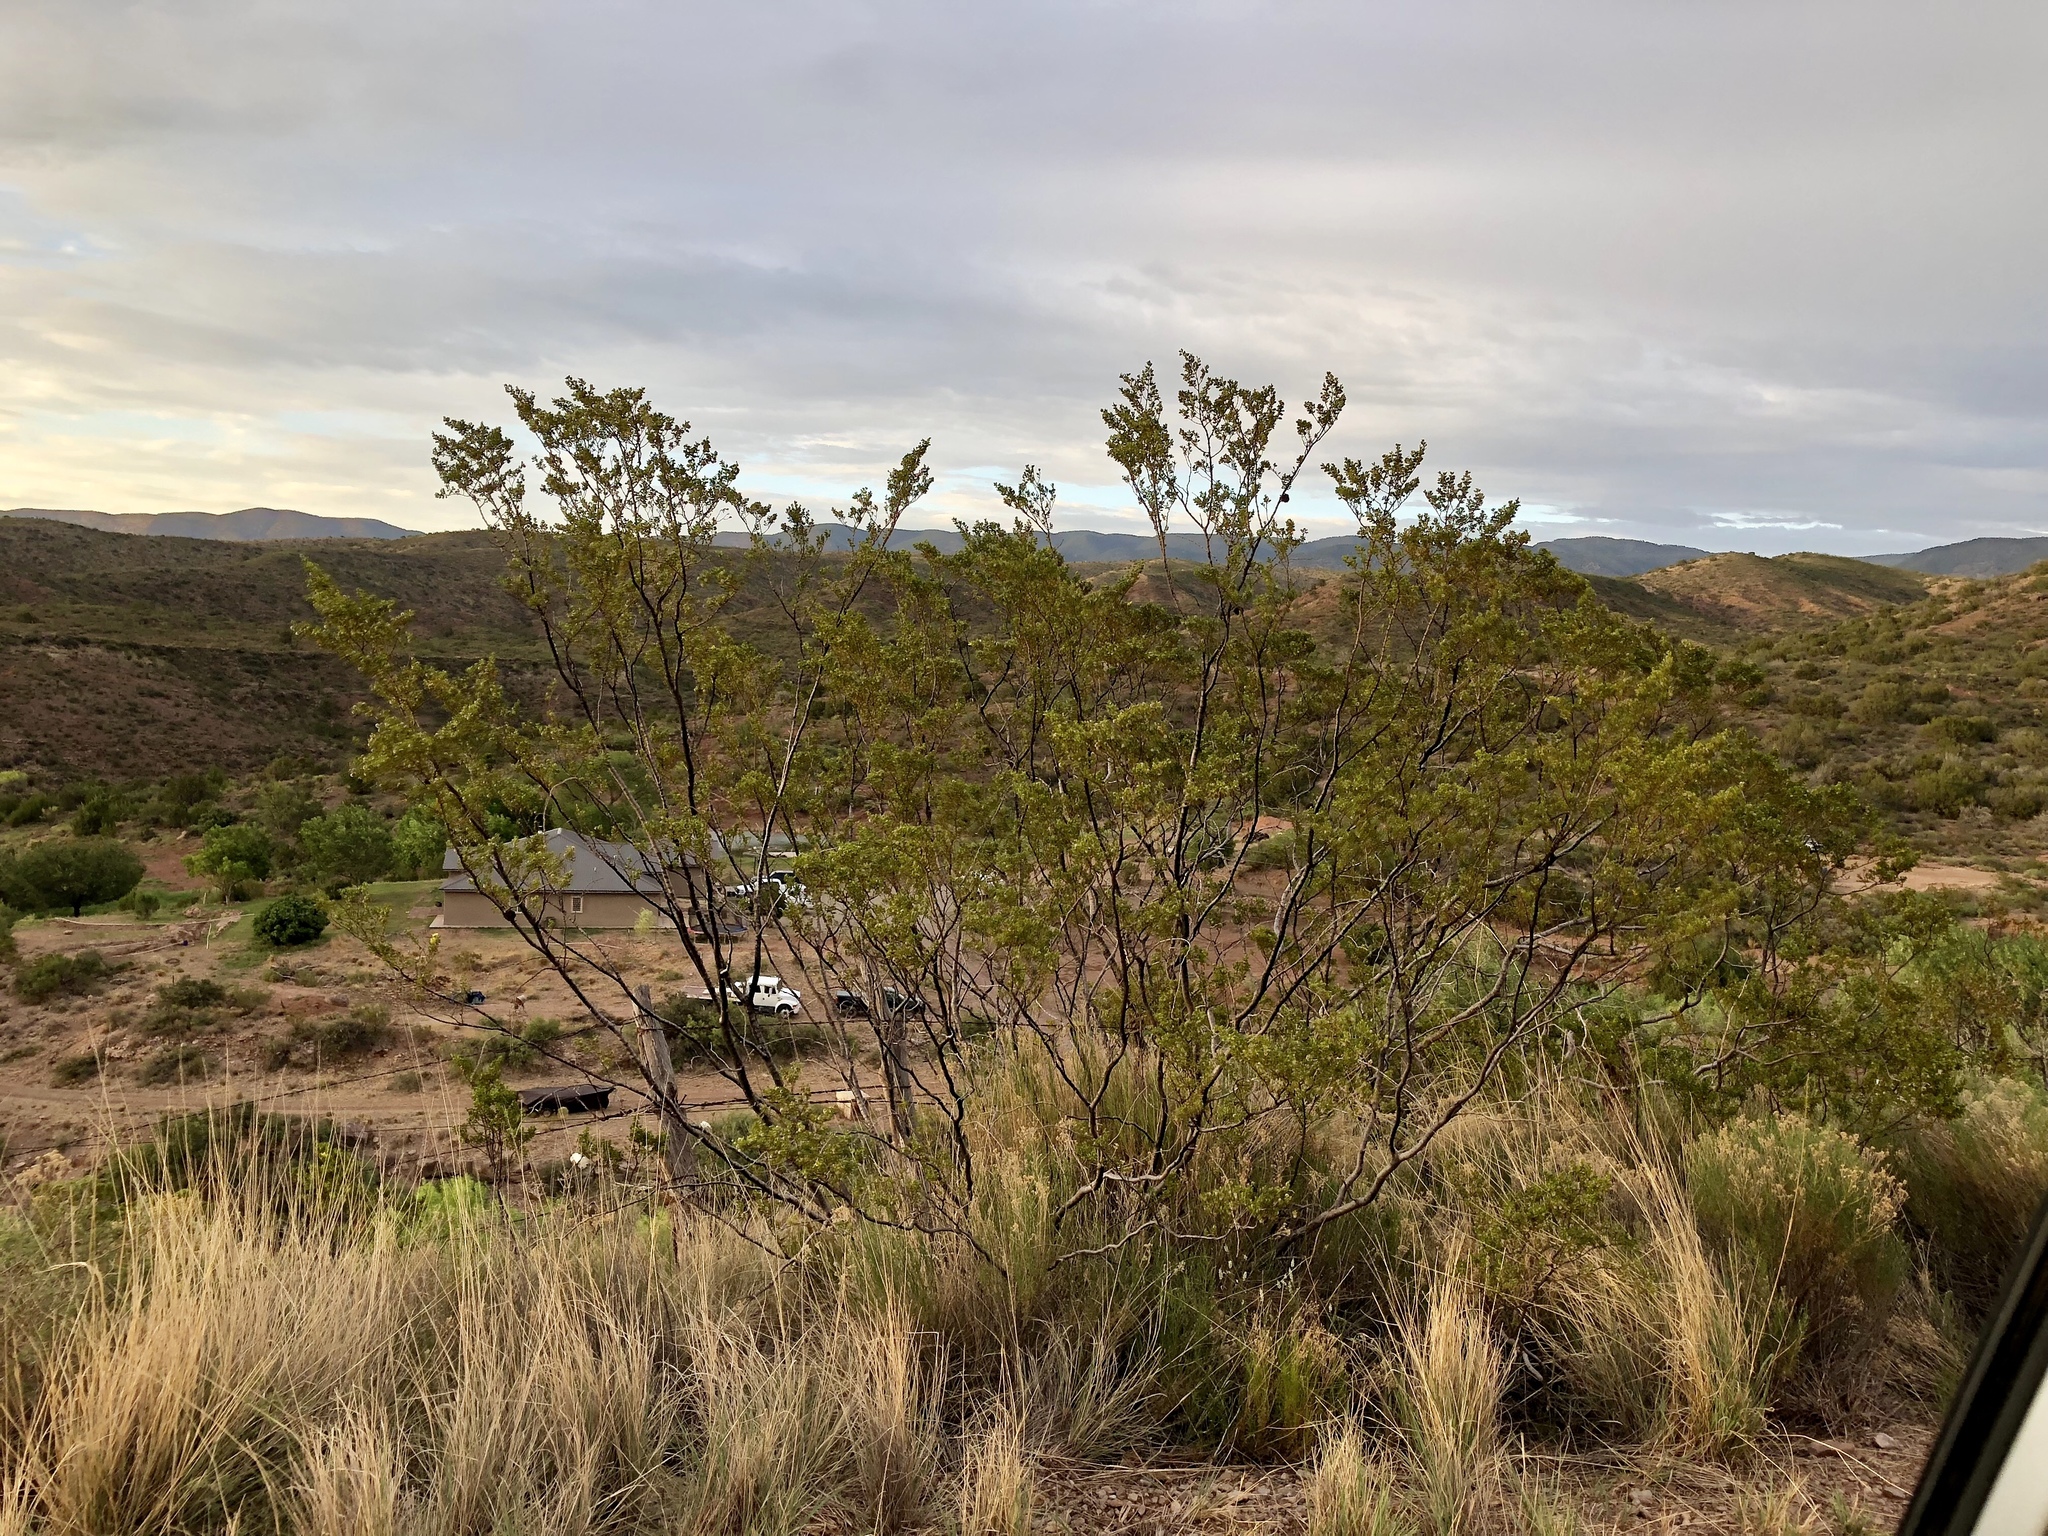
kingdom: Plantae
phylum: Tracheophyta
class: Magnoliopsida
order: Zygophyllales
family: Zygophyllaceae
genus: Larrea
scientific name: Larrea tridentata
